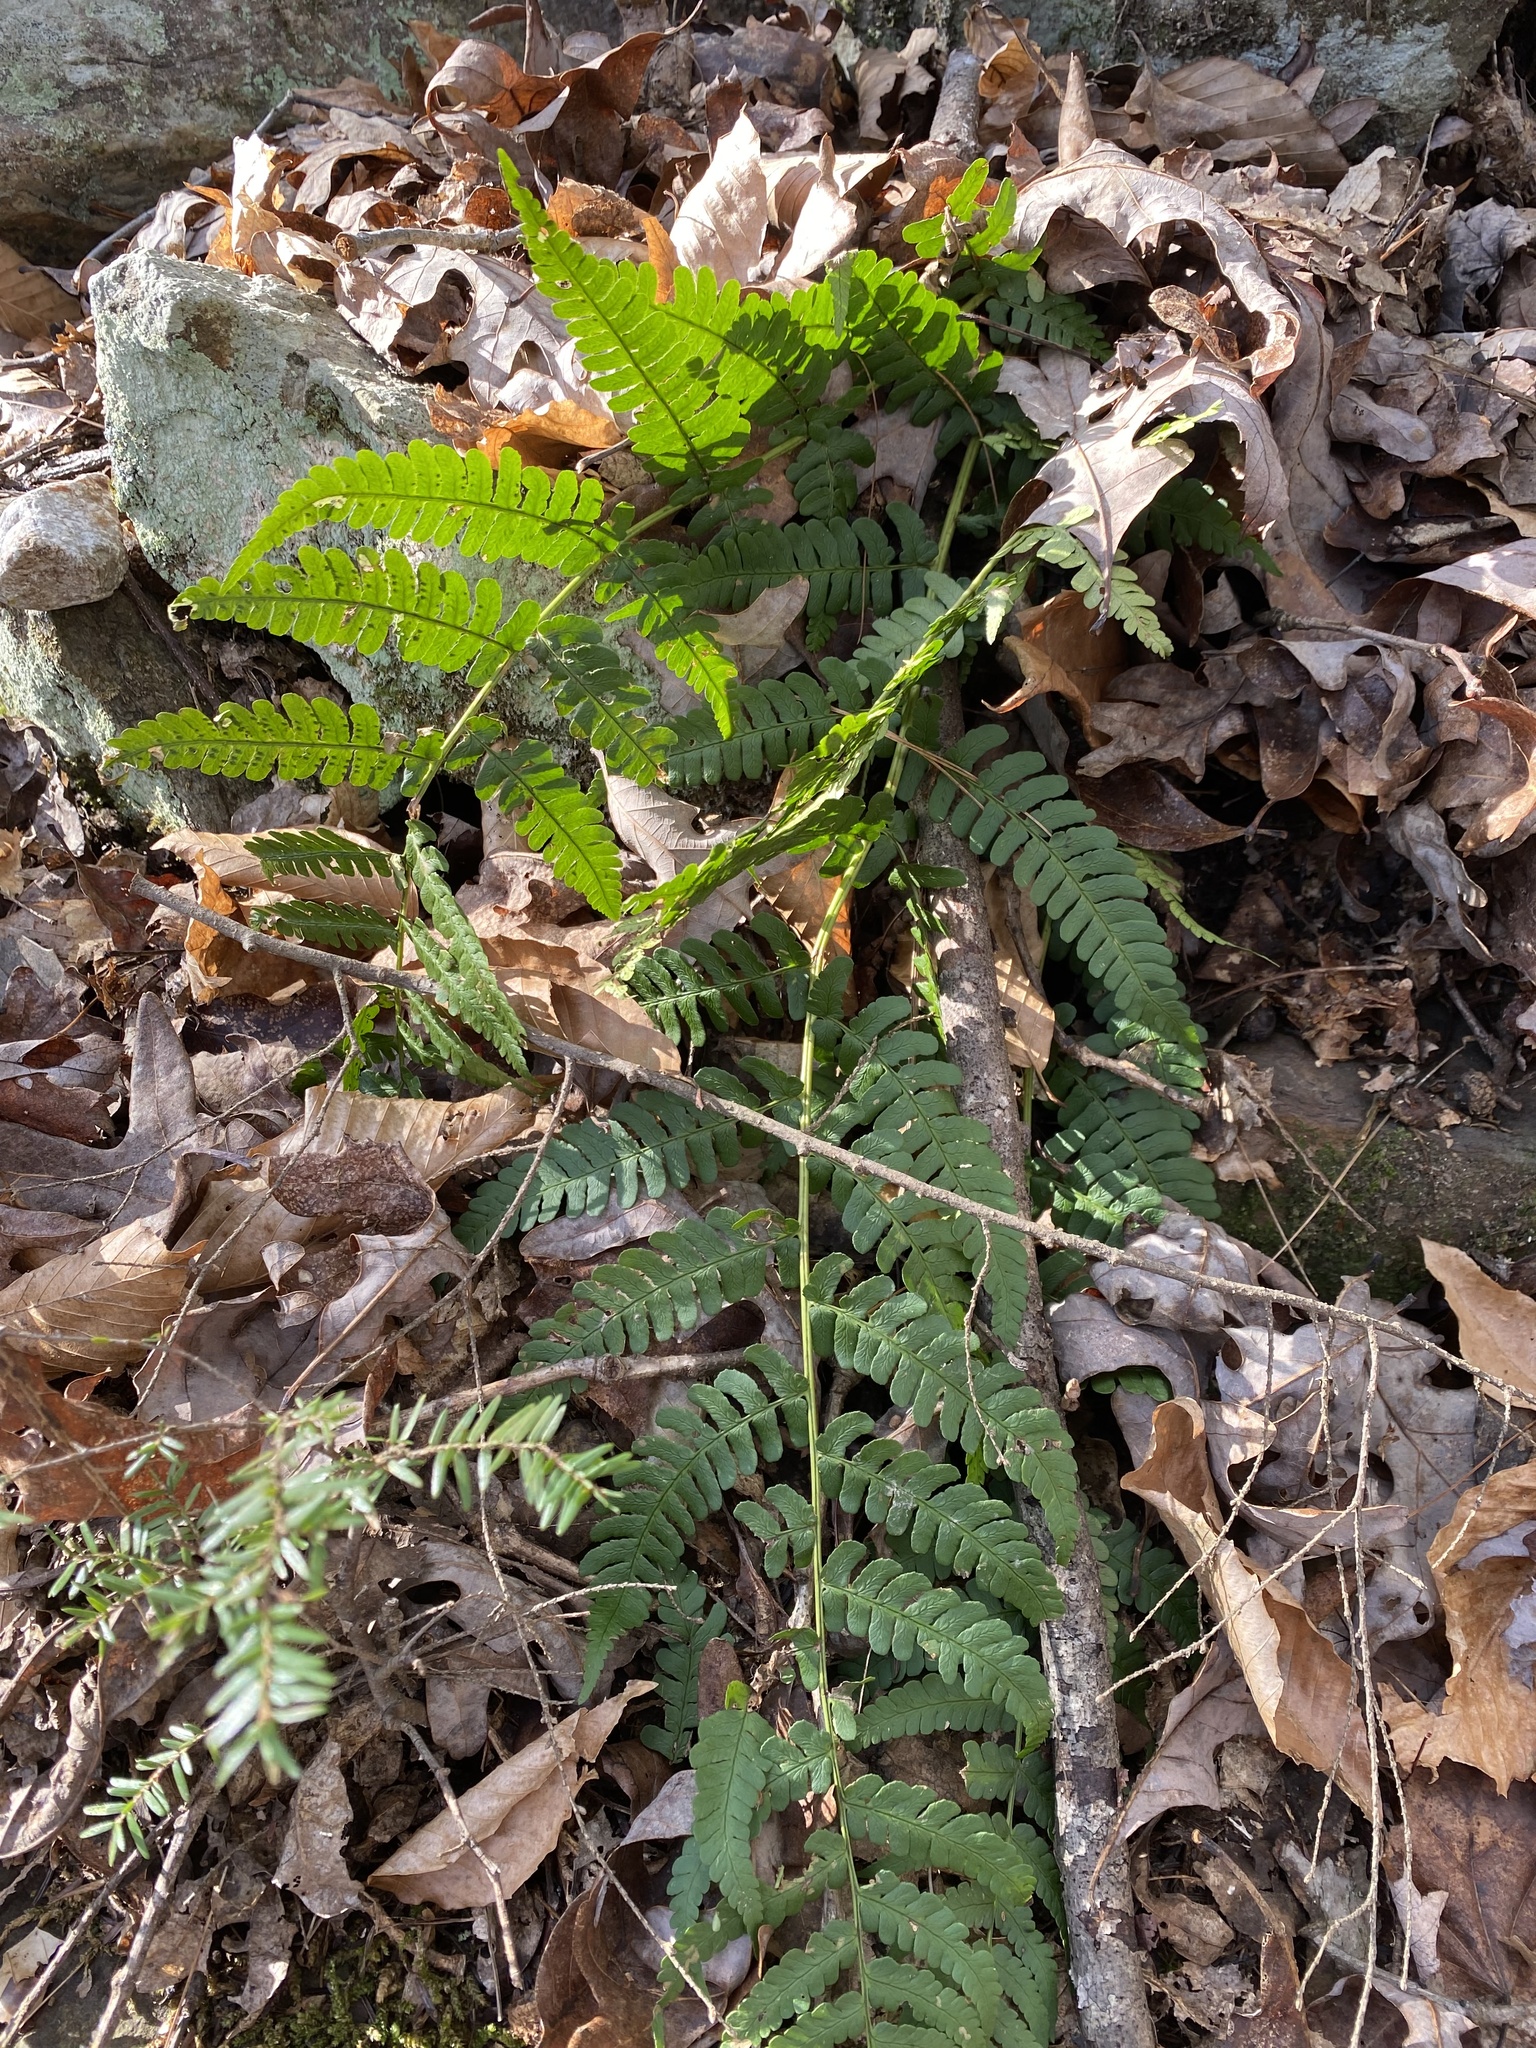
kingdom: Plantae
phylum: Tracheophyta
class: Polypodiopsida
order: Polypodiales
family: Dryopteridaceae
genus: Dryopteris
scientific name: Dryopteris marginalis
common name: Marginal wood fern
